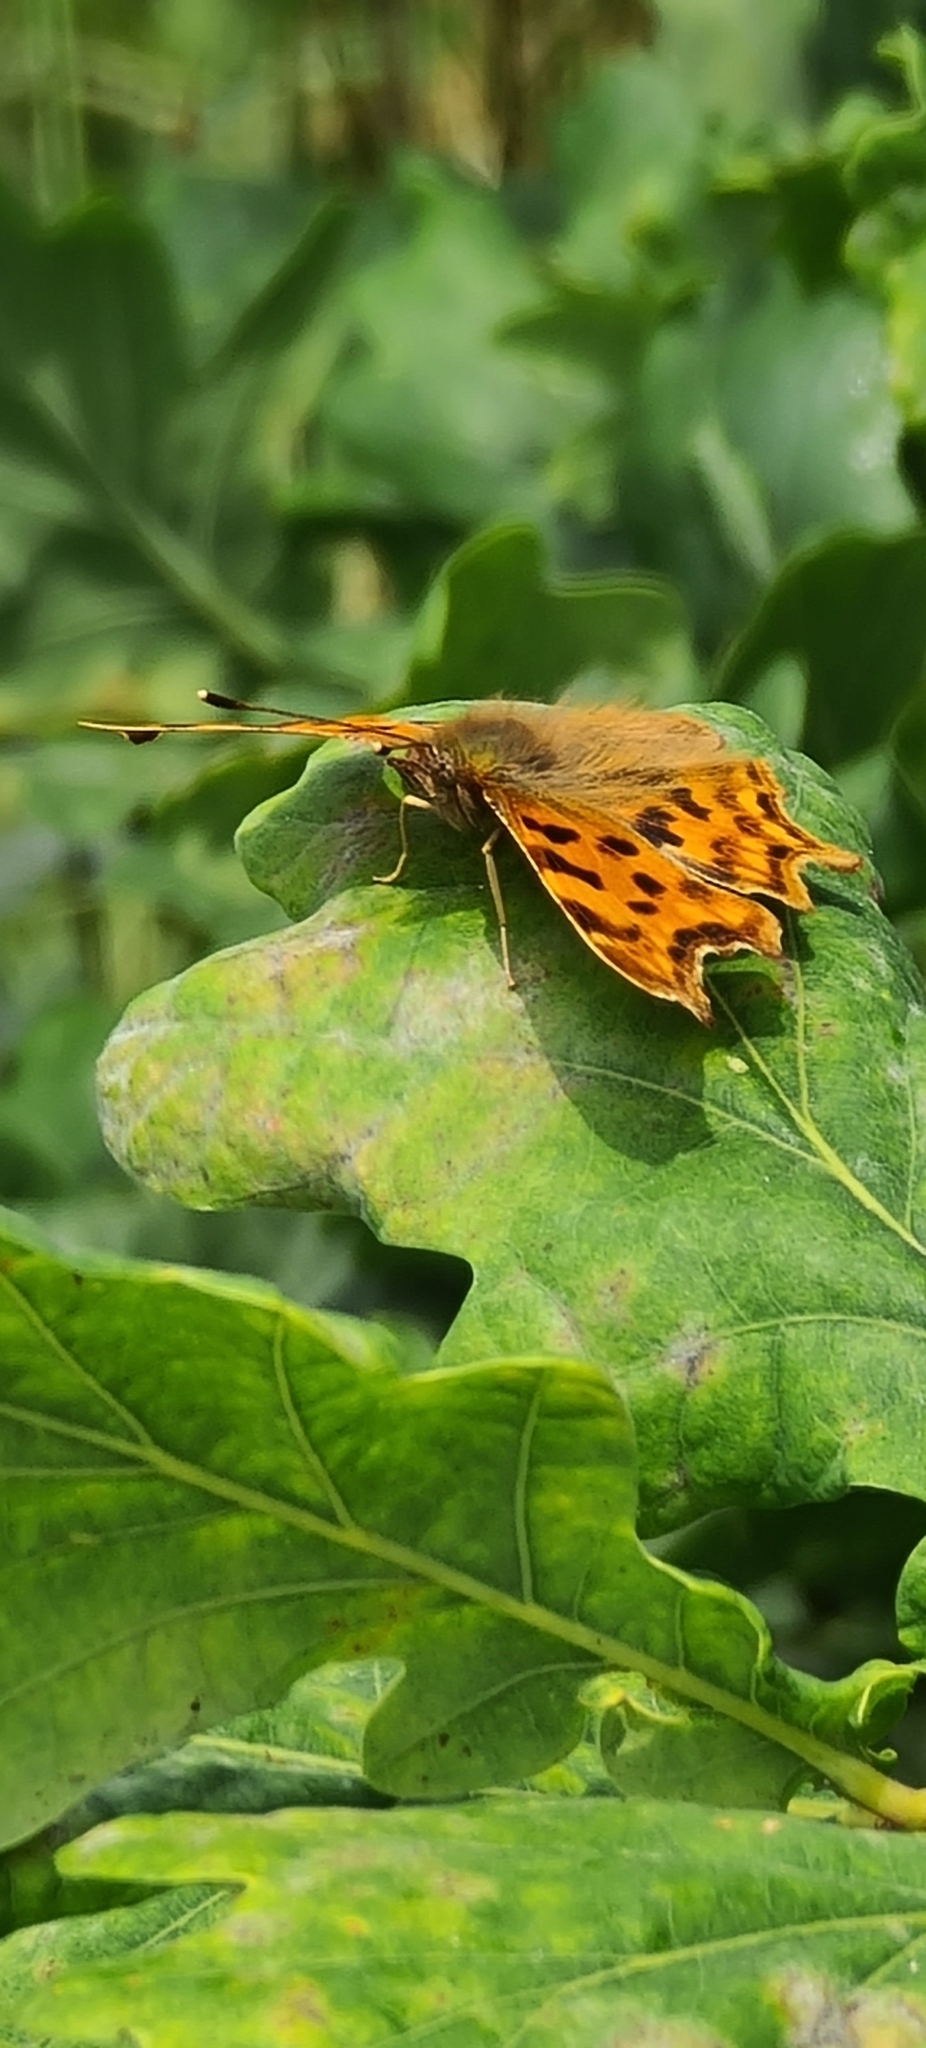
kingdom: Animalia
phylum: Arthropoda
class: Insecta
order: Lepidoptera
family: Nymphalidae
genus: Polygonia
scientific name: Polygonia c-album
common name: Comma
